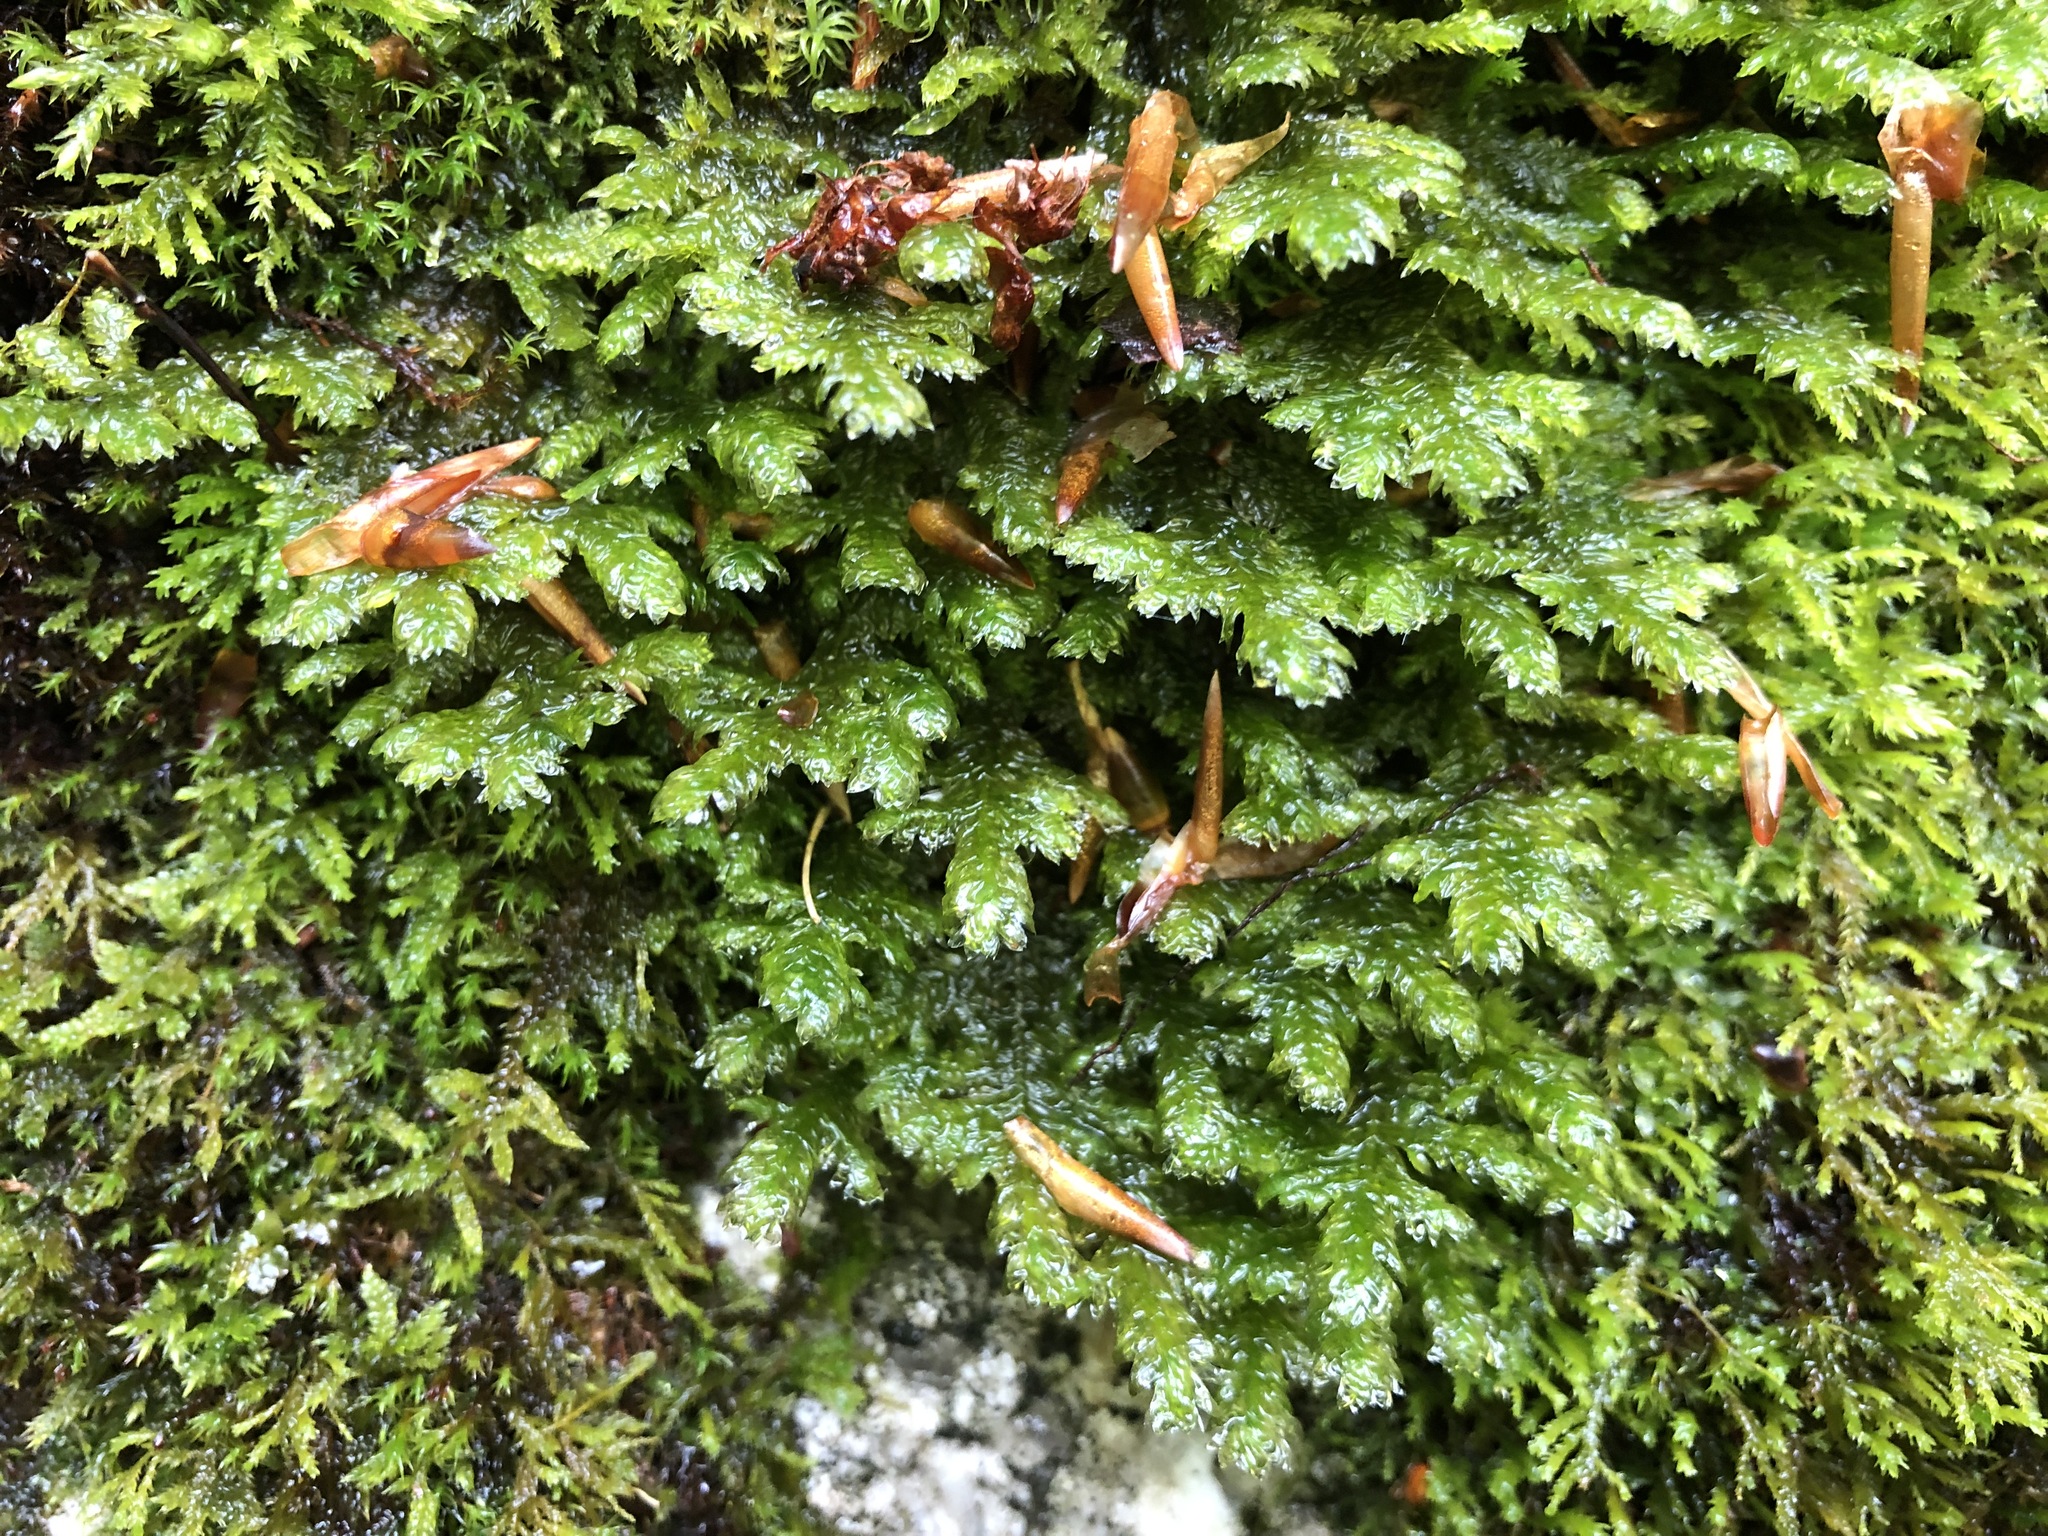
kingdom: Plantae
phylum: Bryophyta
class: Bryopsida
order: Hypnales
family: Neckeraceae
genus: Exsertotheca
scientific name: Exsertotheca crispa
